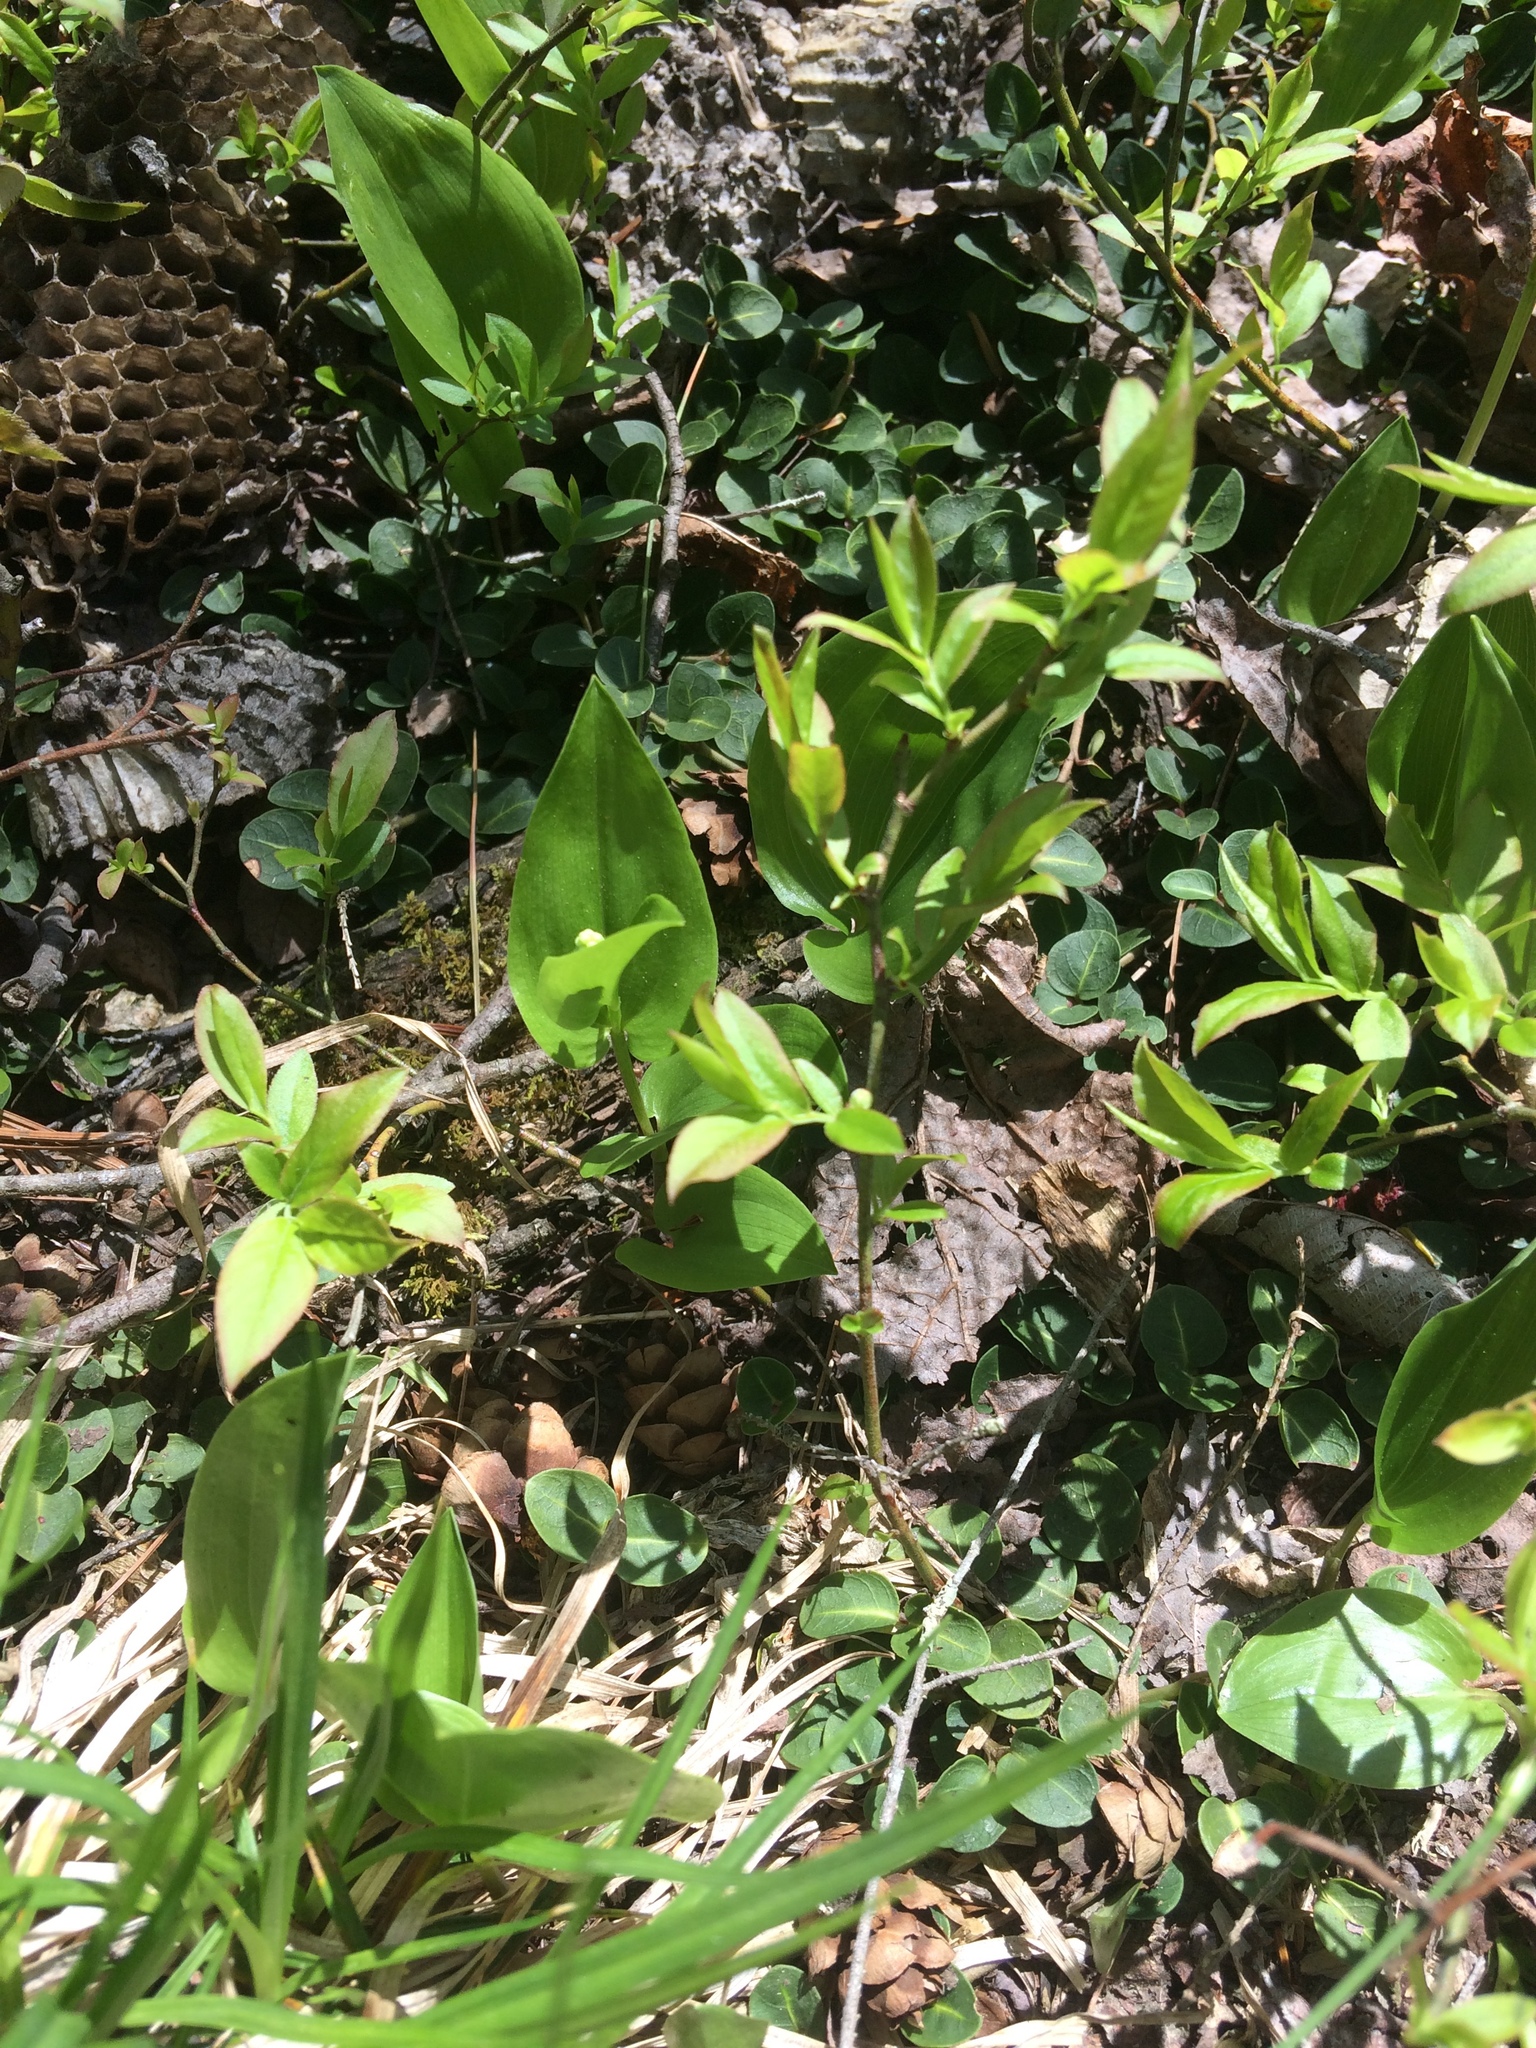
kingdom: Plantae
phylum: Tracheophyta
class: Liliopsida
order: Asparagales
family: Asparagaceae
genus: Maianthemum
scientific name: Maianthemum canadense
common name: False lily-of-the-valley
